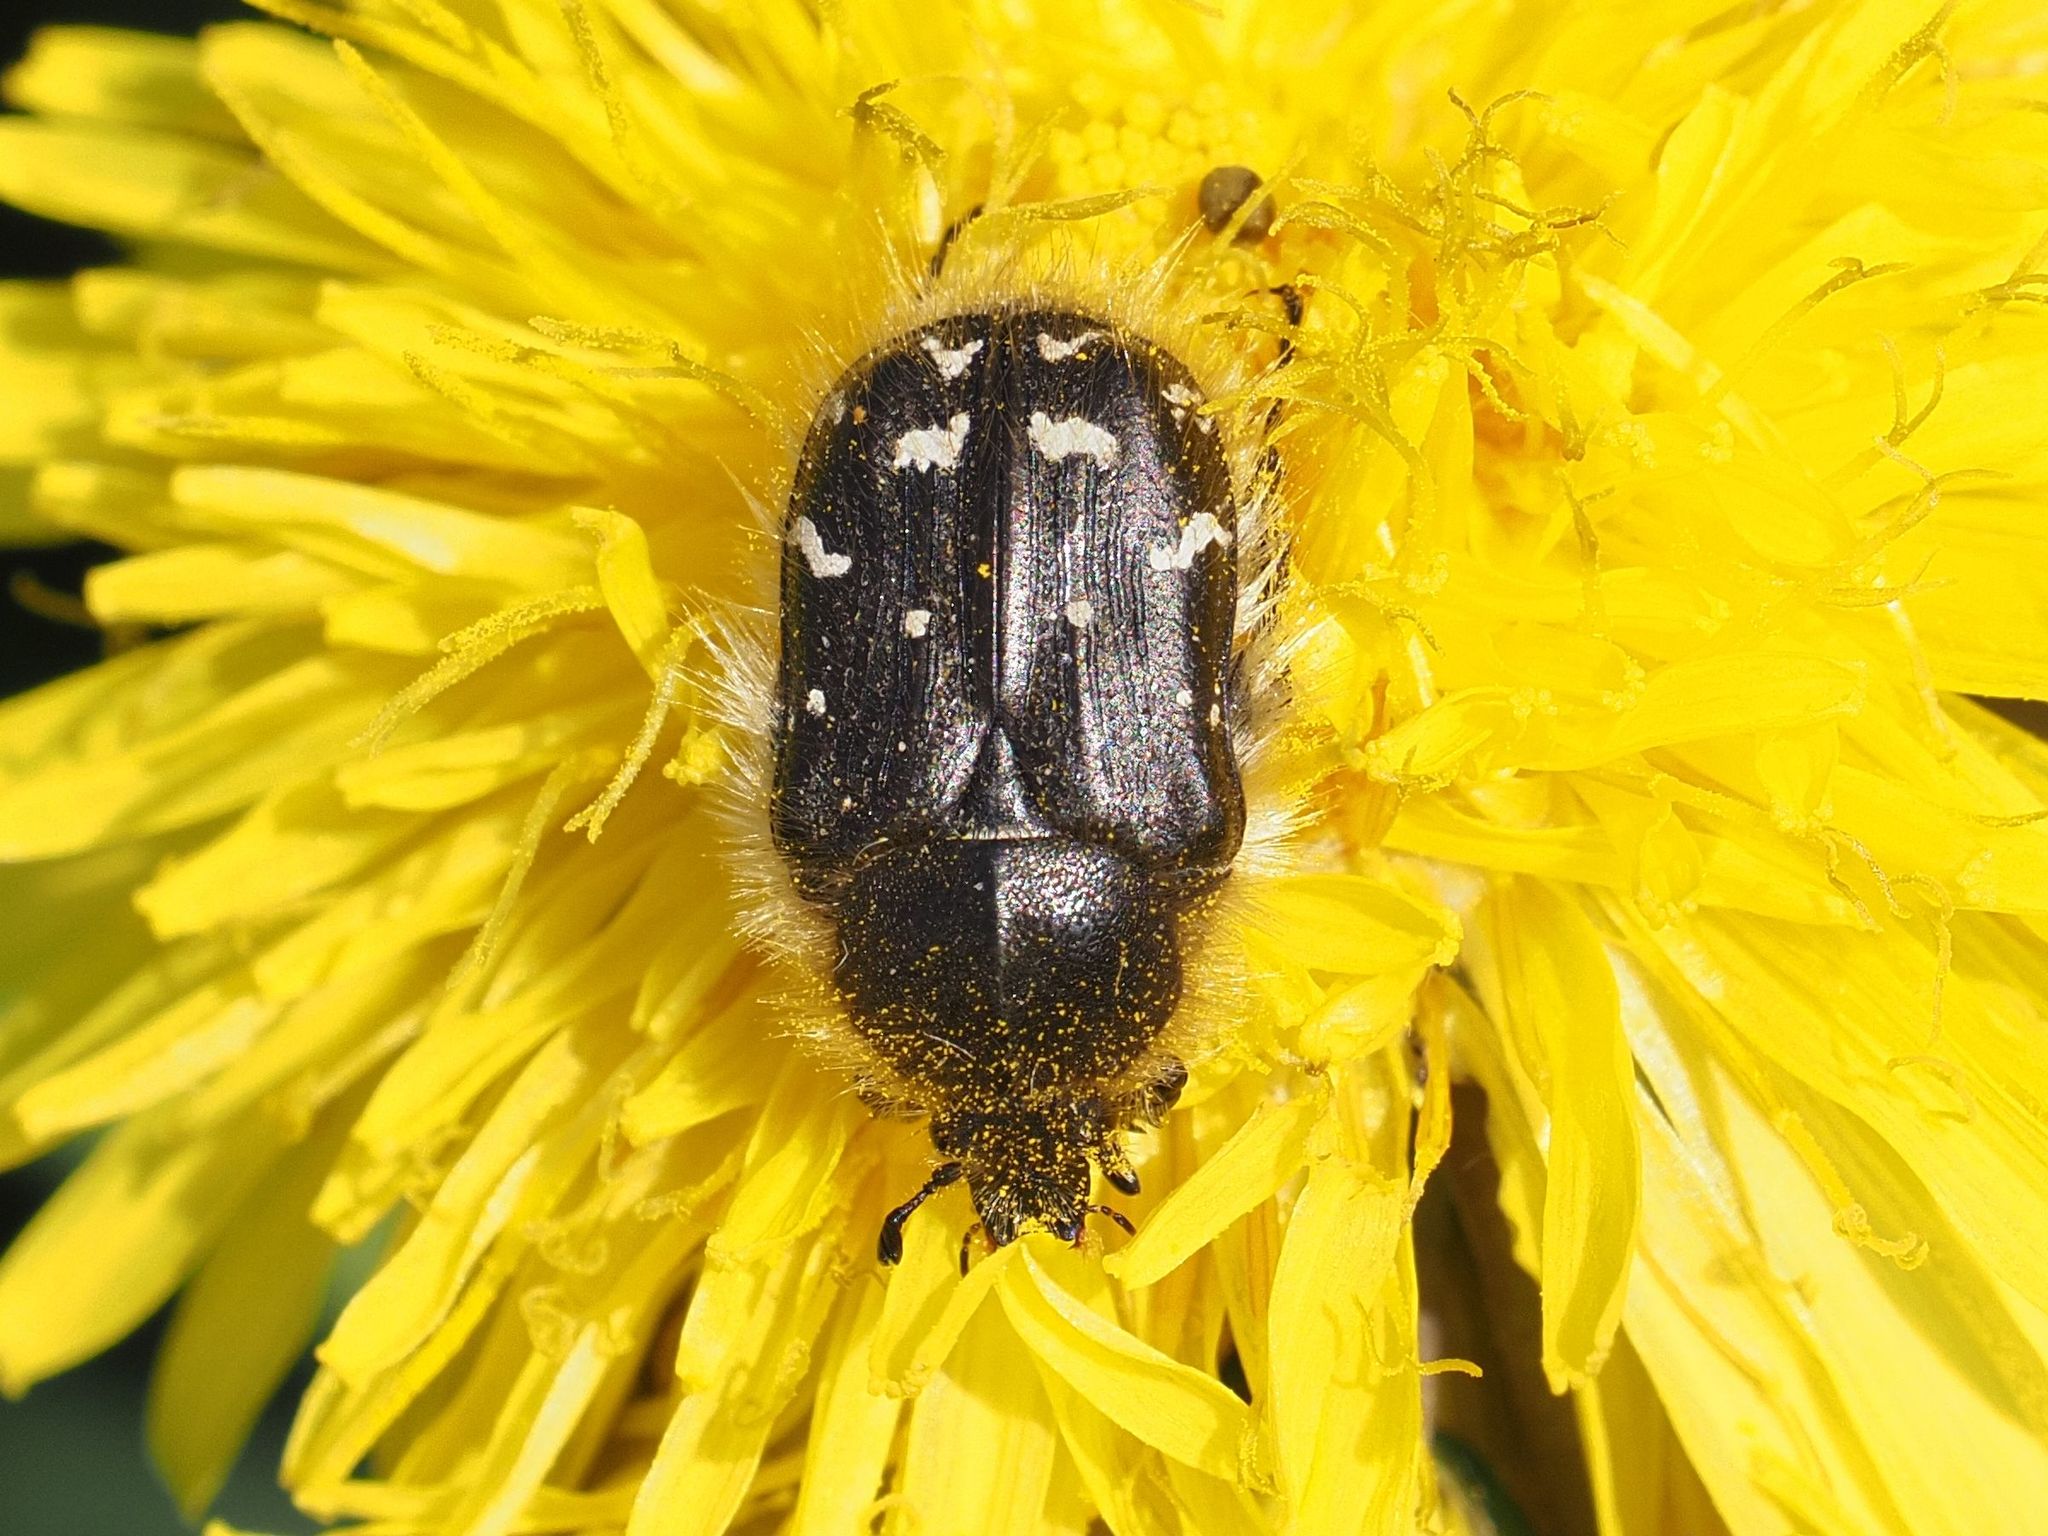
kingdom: Animalia
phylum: Arthropoda
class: Insecta
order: Coleoptera
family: Scarabaeidae
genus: Tropinota
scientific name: Tropinota hirta
